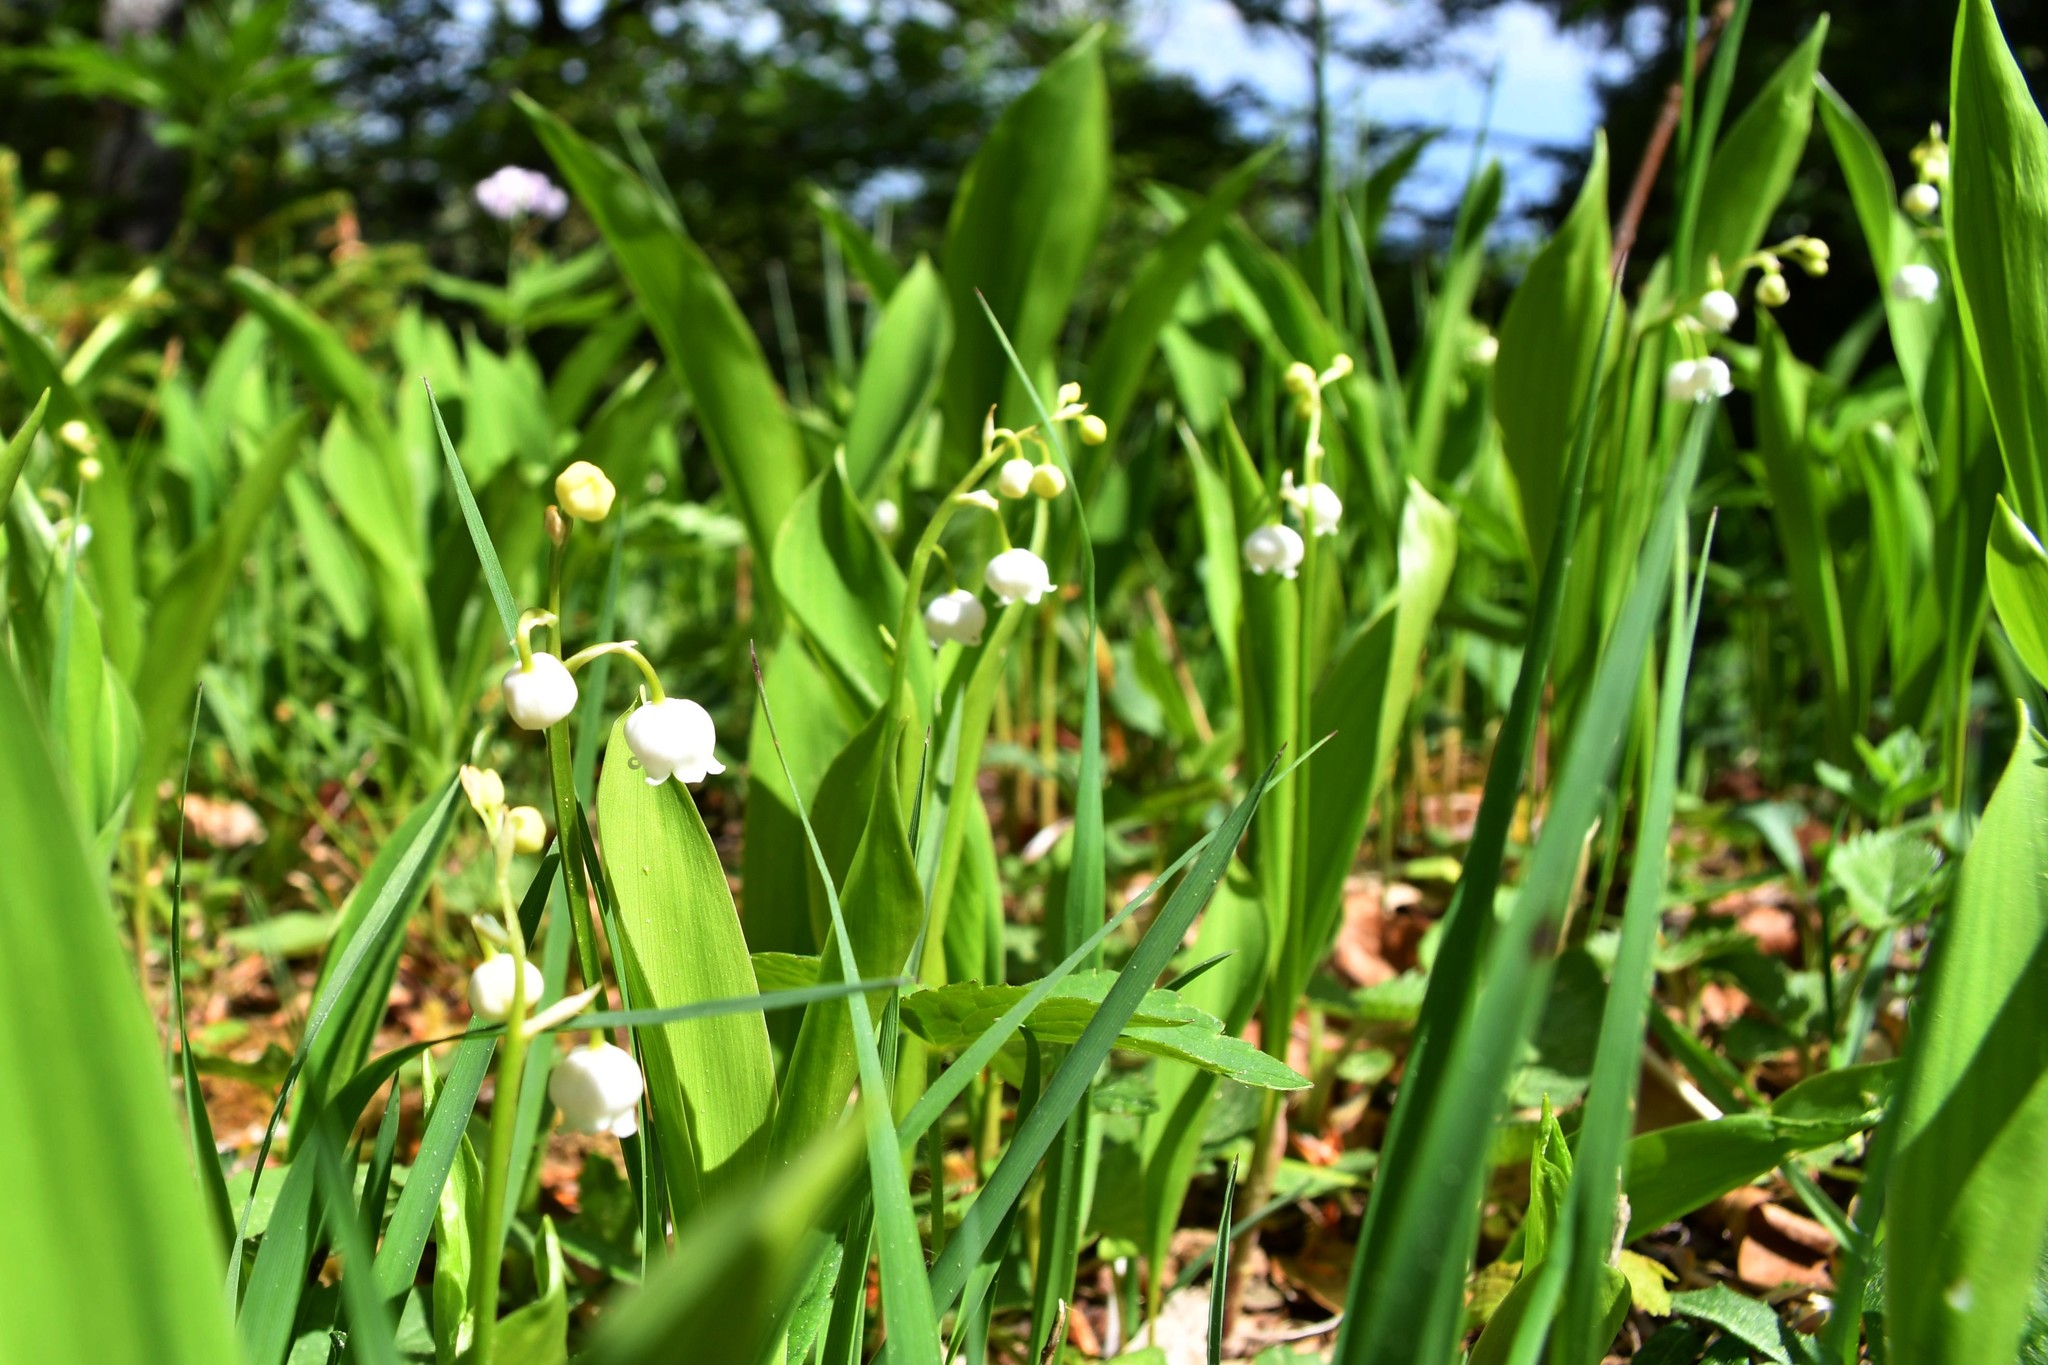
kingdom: Plantae
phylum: Tracheophyta
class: Liliopsida
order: Asparagales
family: Asparagaceae
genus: Convallaria
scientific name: Convallaria majalis
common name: Lily-of-the-valley
